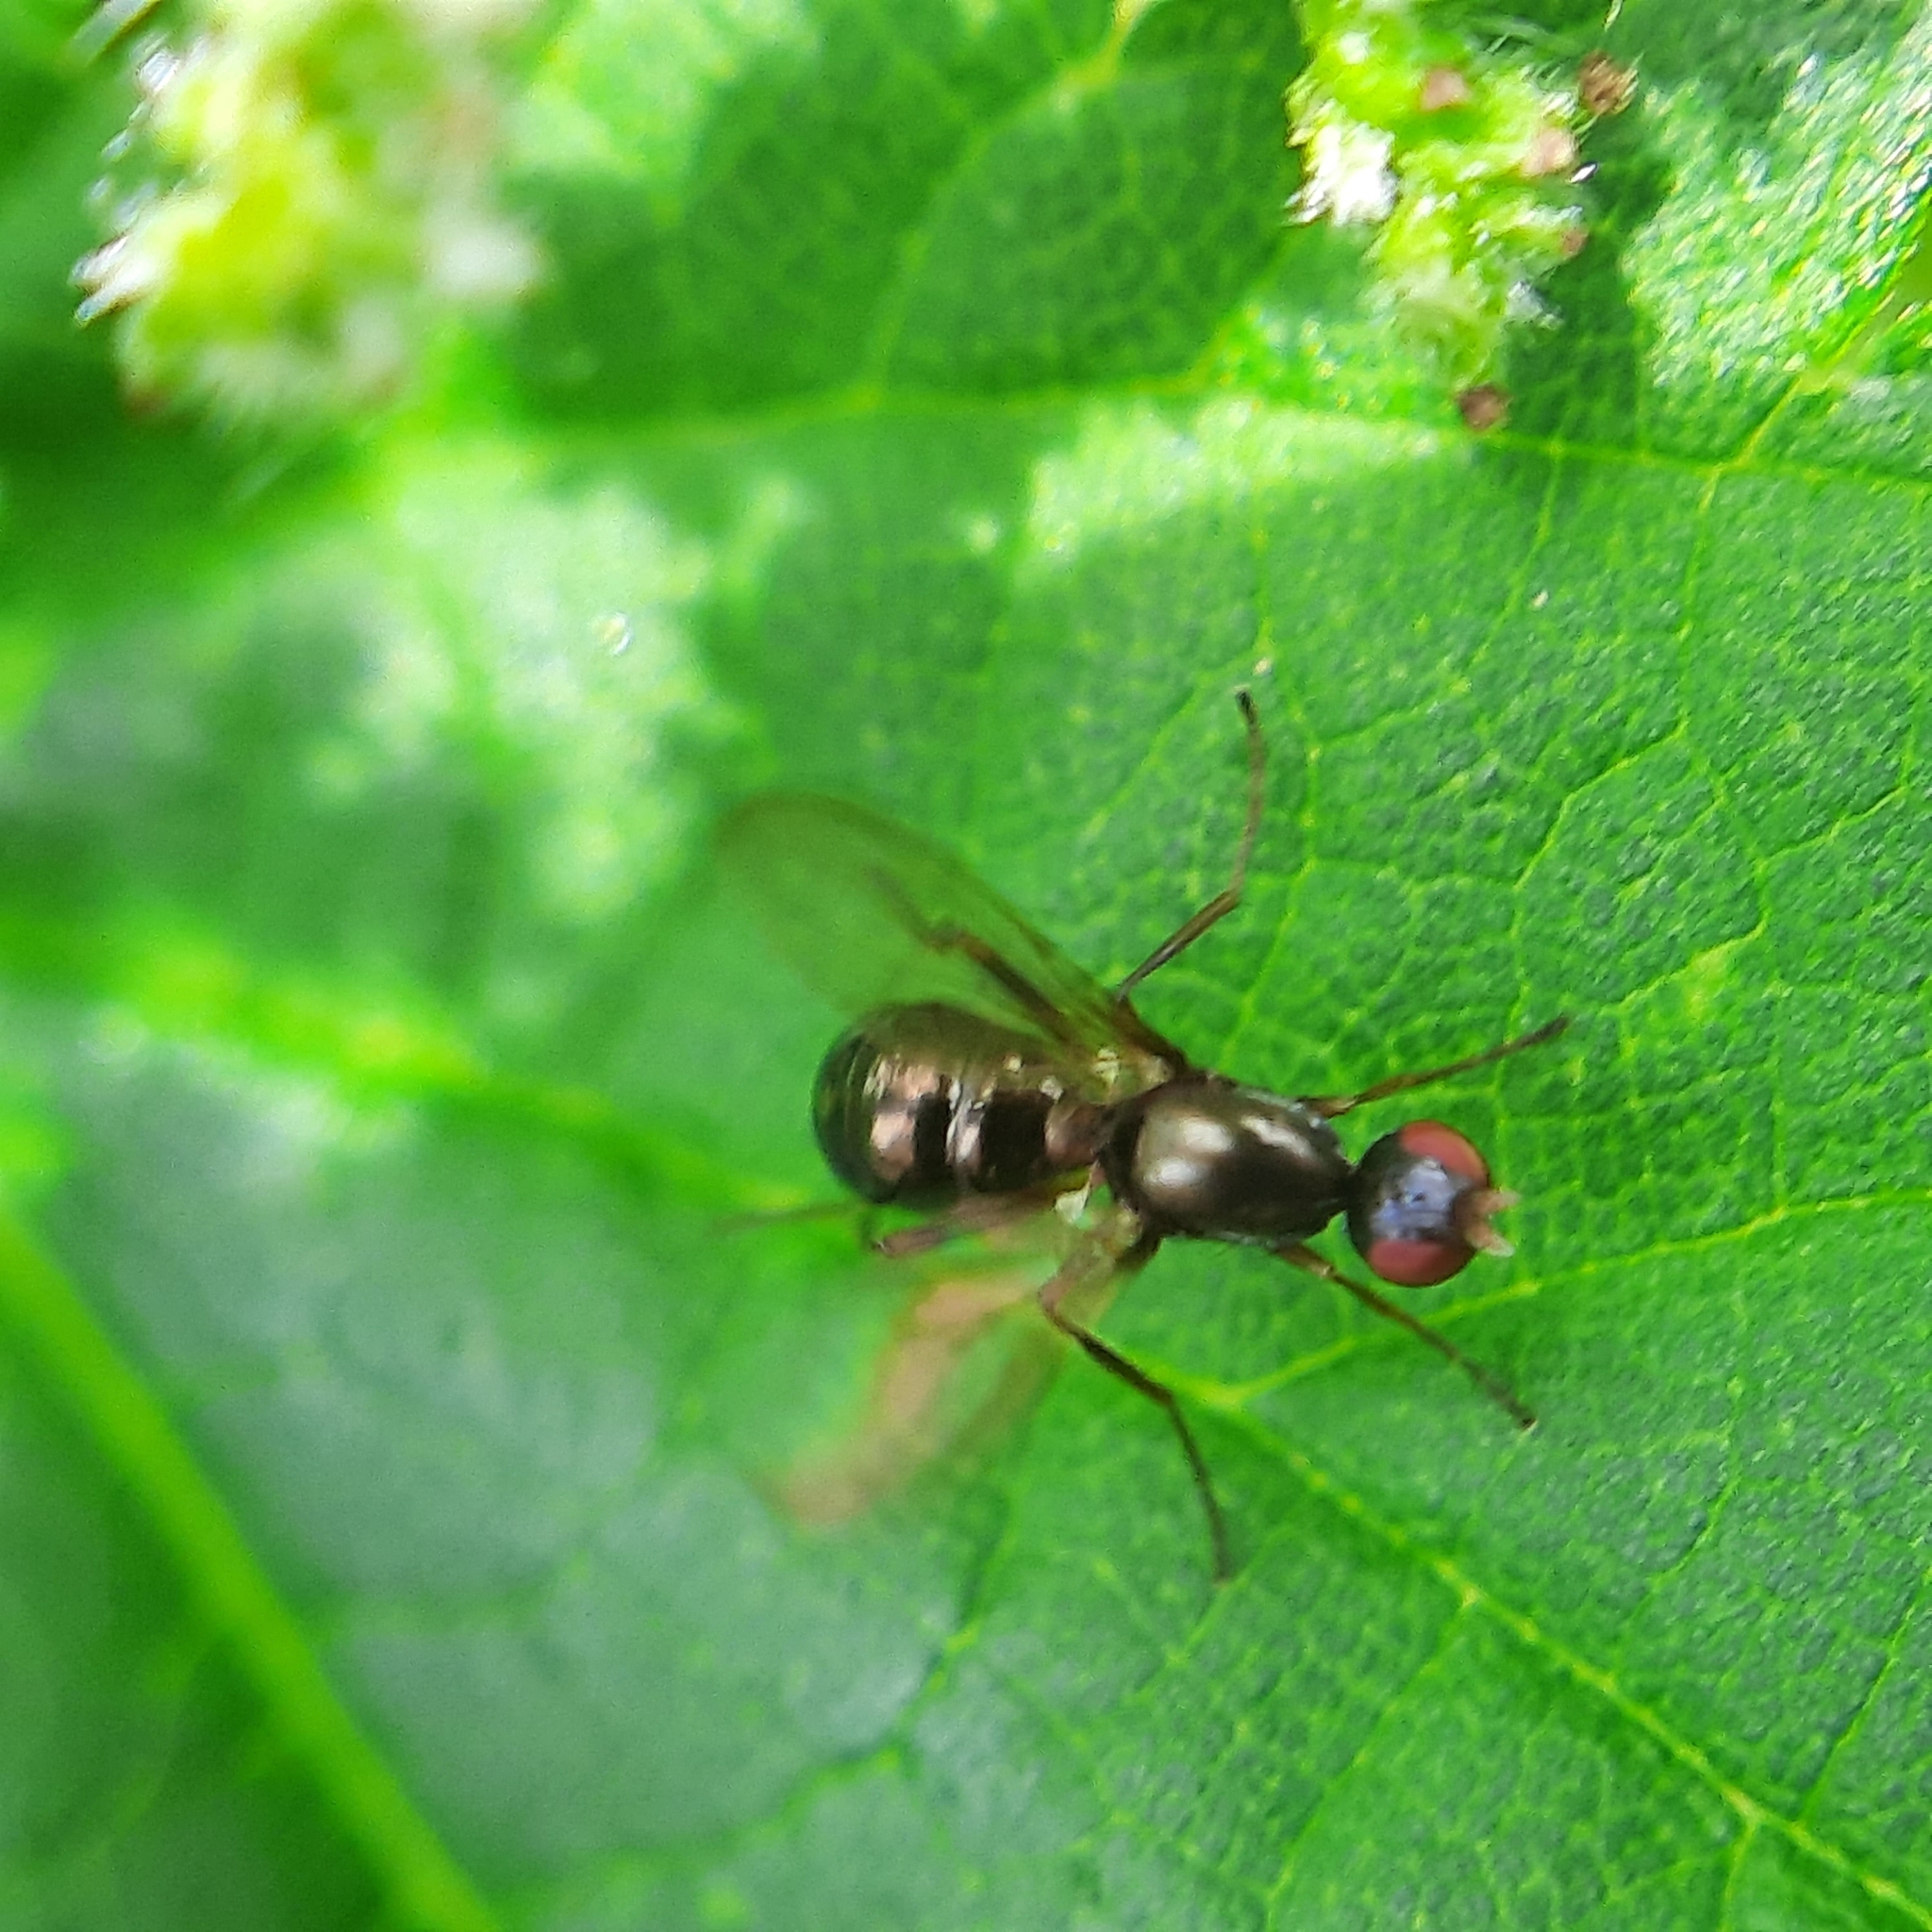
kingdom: Animalia
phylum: Arthropoda
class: Insecta
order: Diptera
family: Sepsidae
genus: Nemopoda
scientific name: Nemopoda nitidula
